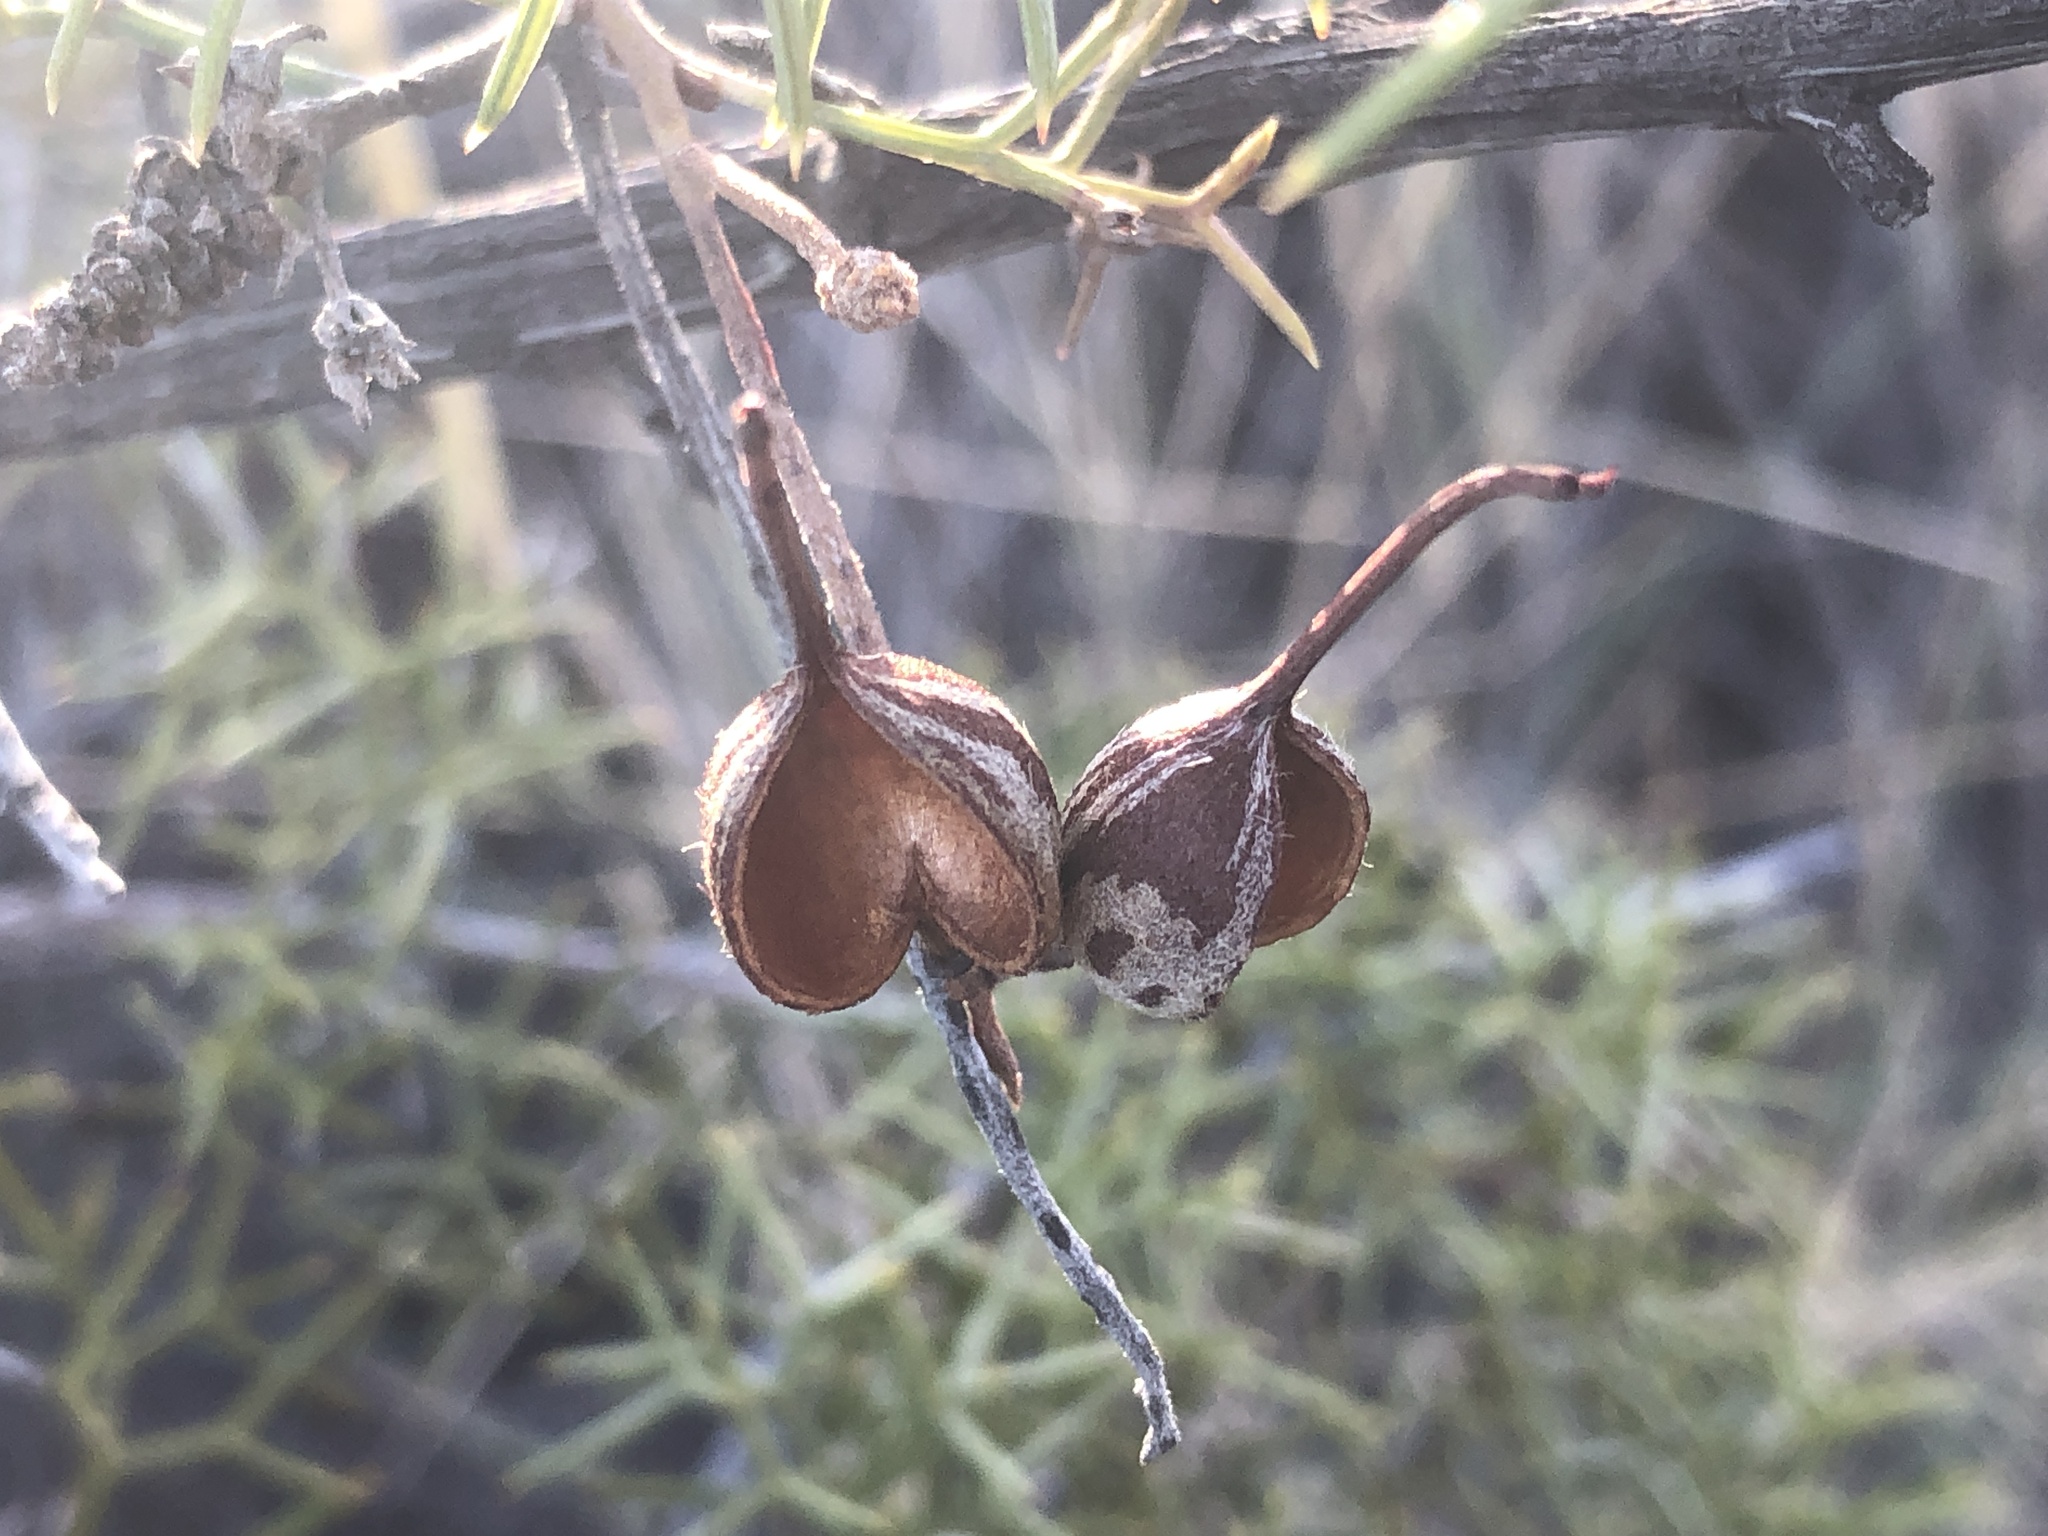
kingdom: Plantae
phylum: Tracheophyta
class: Magnoliopsida
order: Proteales
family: Proteaceae
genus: Grevillea
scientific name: Grevillea treueriana
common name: Mt finke grevillea
